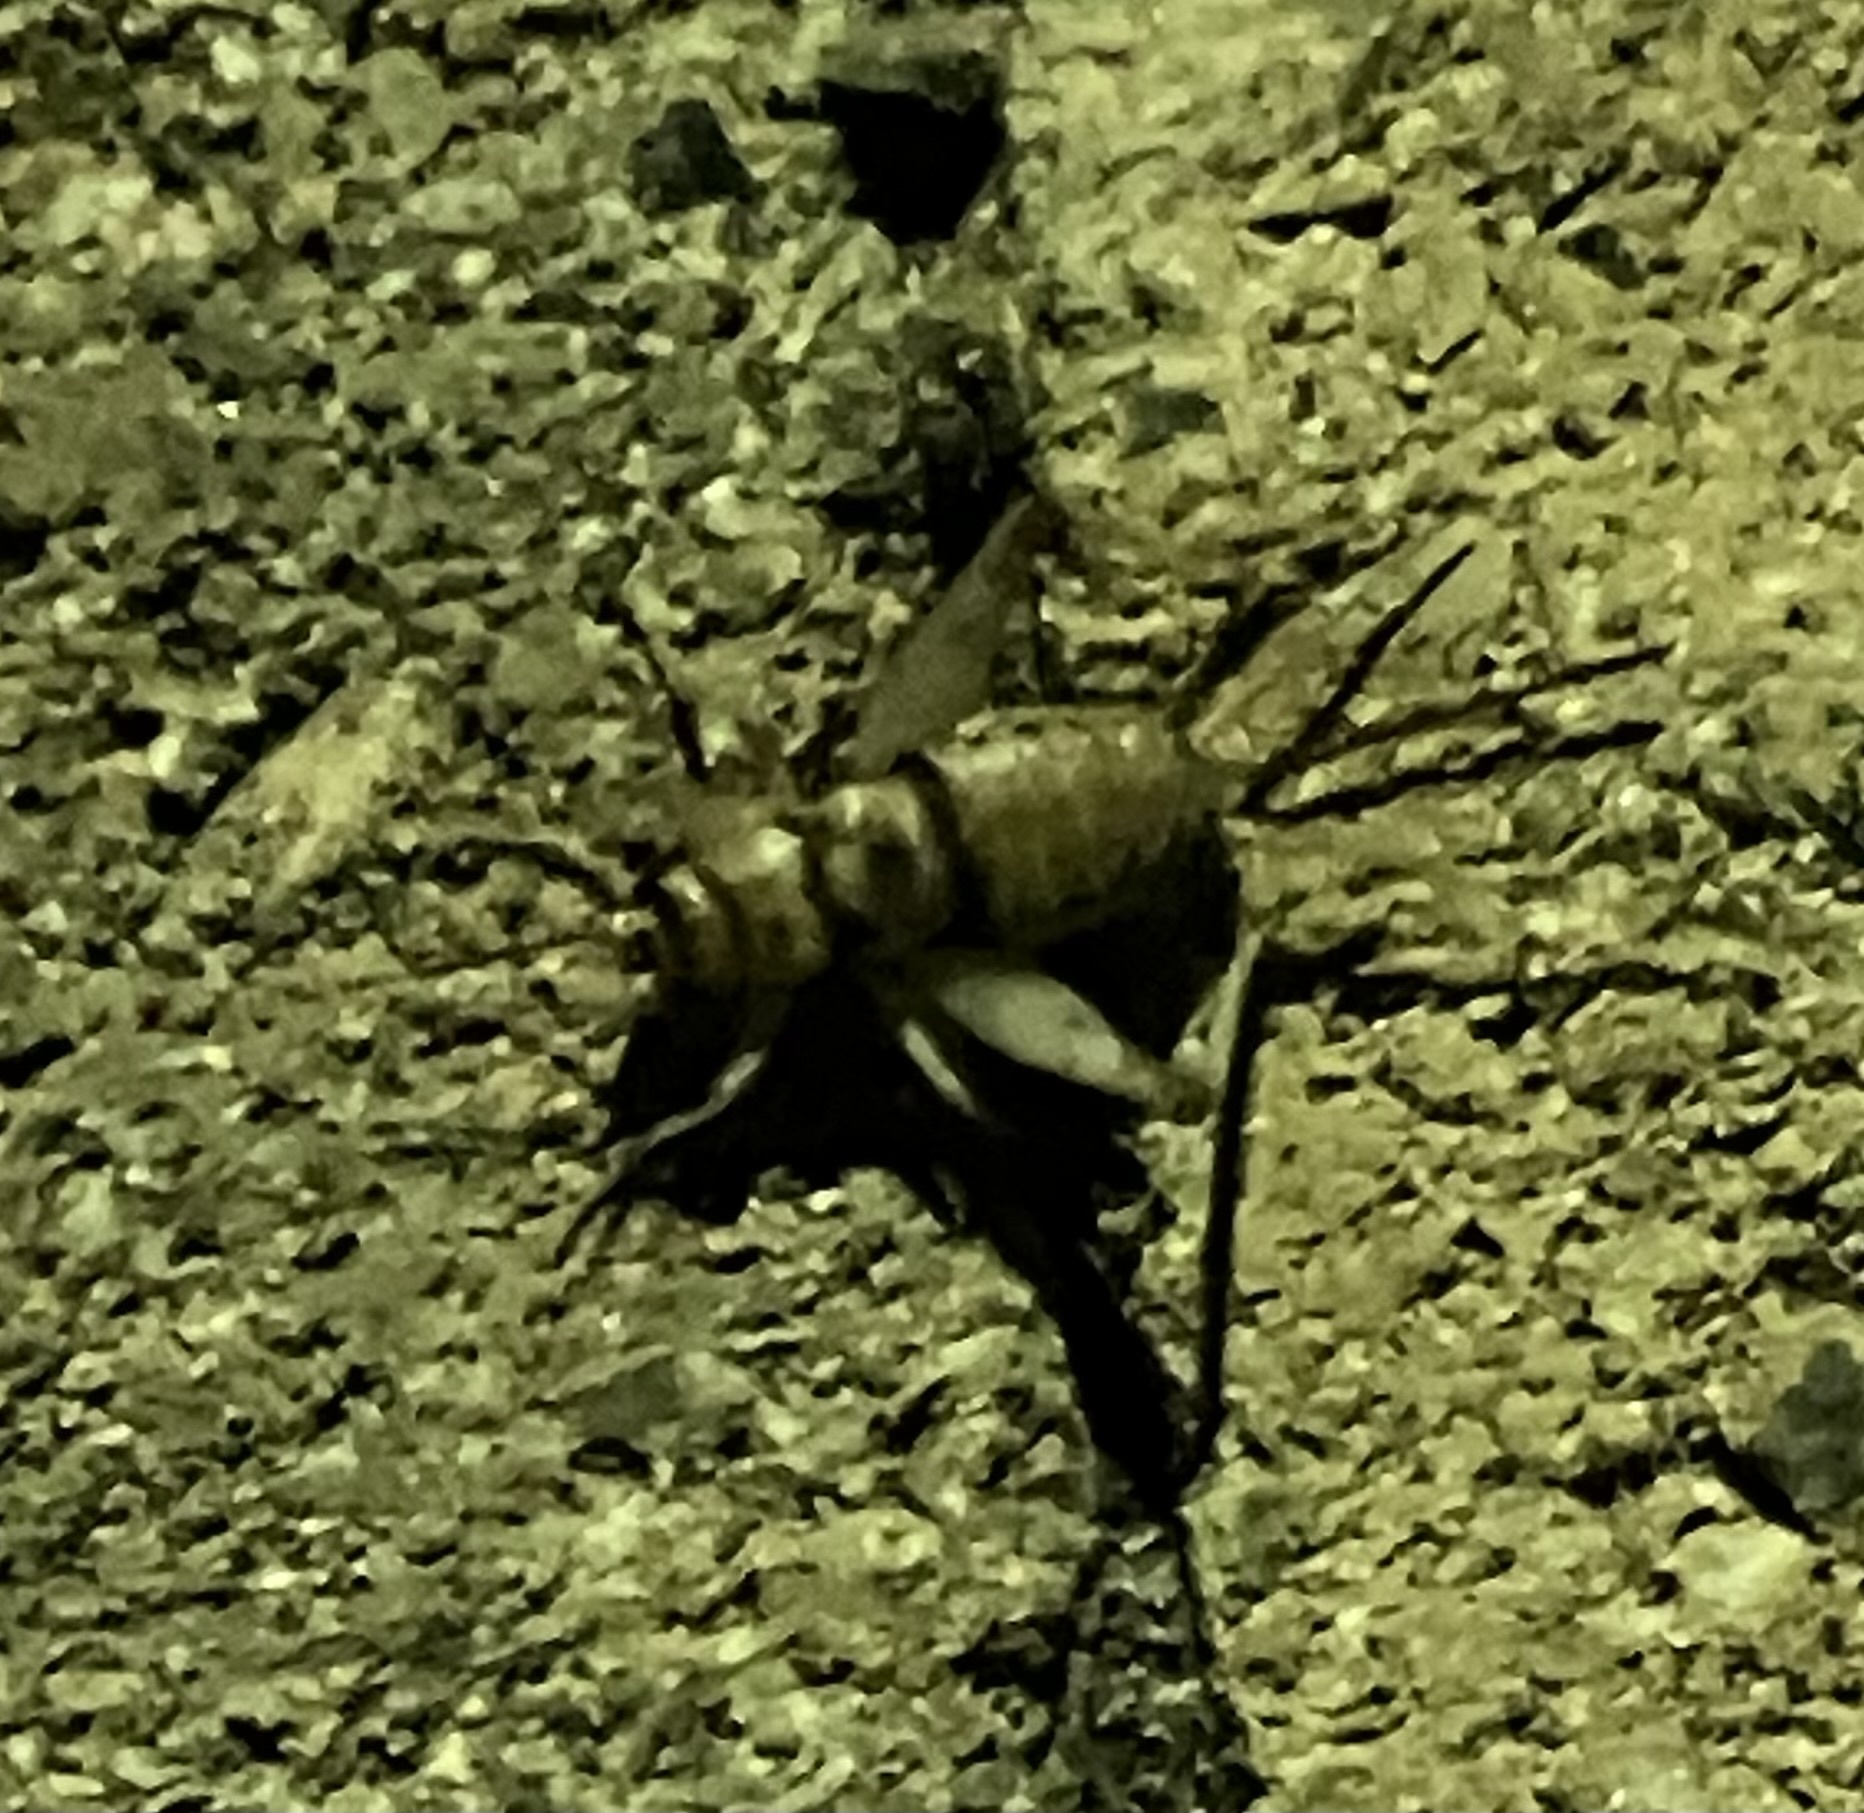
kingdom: Animalia
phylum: Arthropoda
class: Insecta
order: Orthoptera
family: Gryllidae
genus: Gryllodes
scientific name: Gryllodes sigillatus
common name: Tropical house cricket
